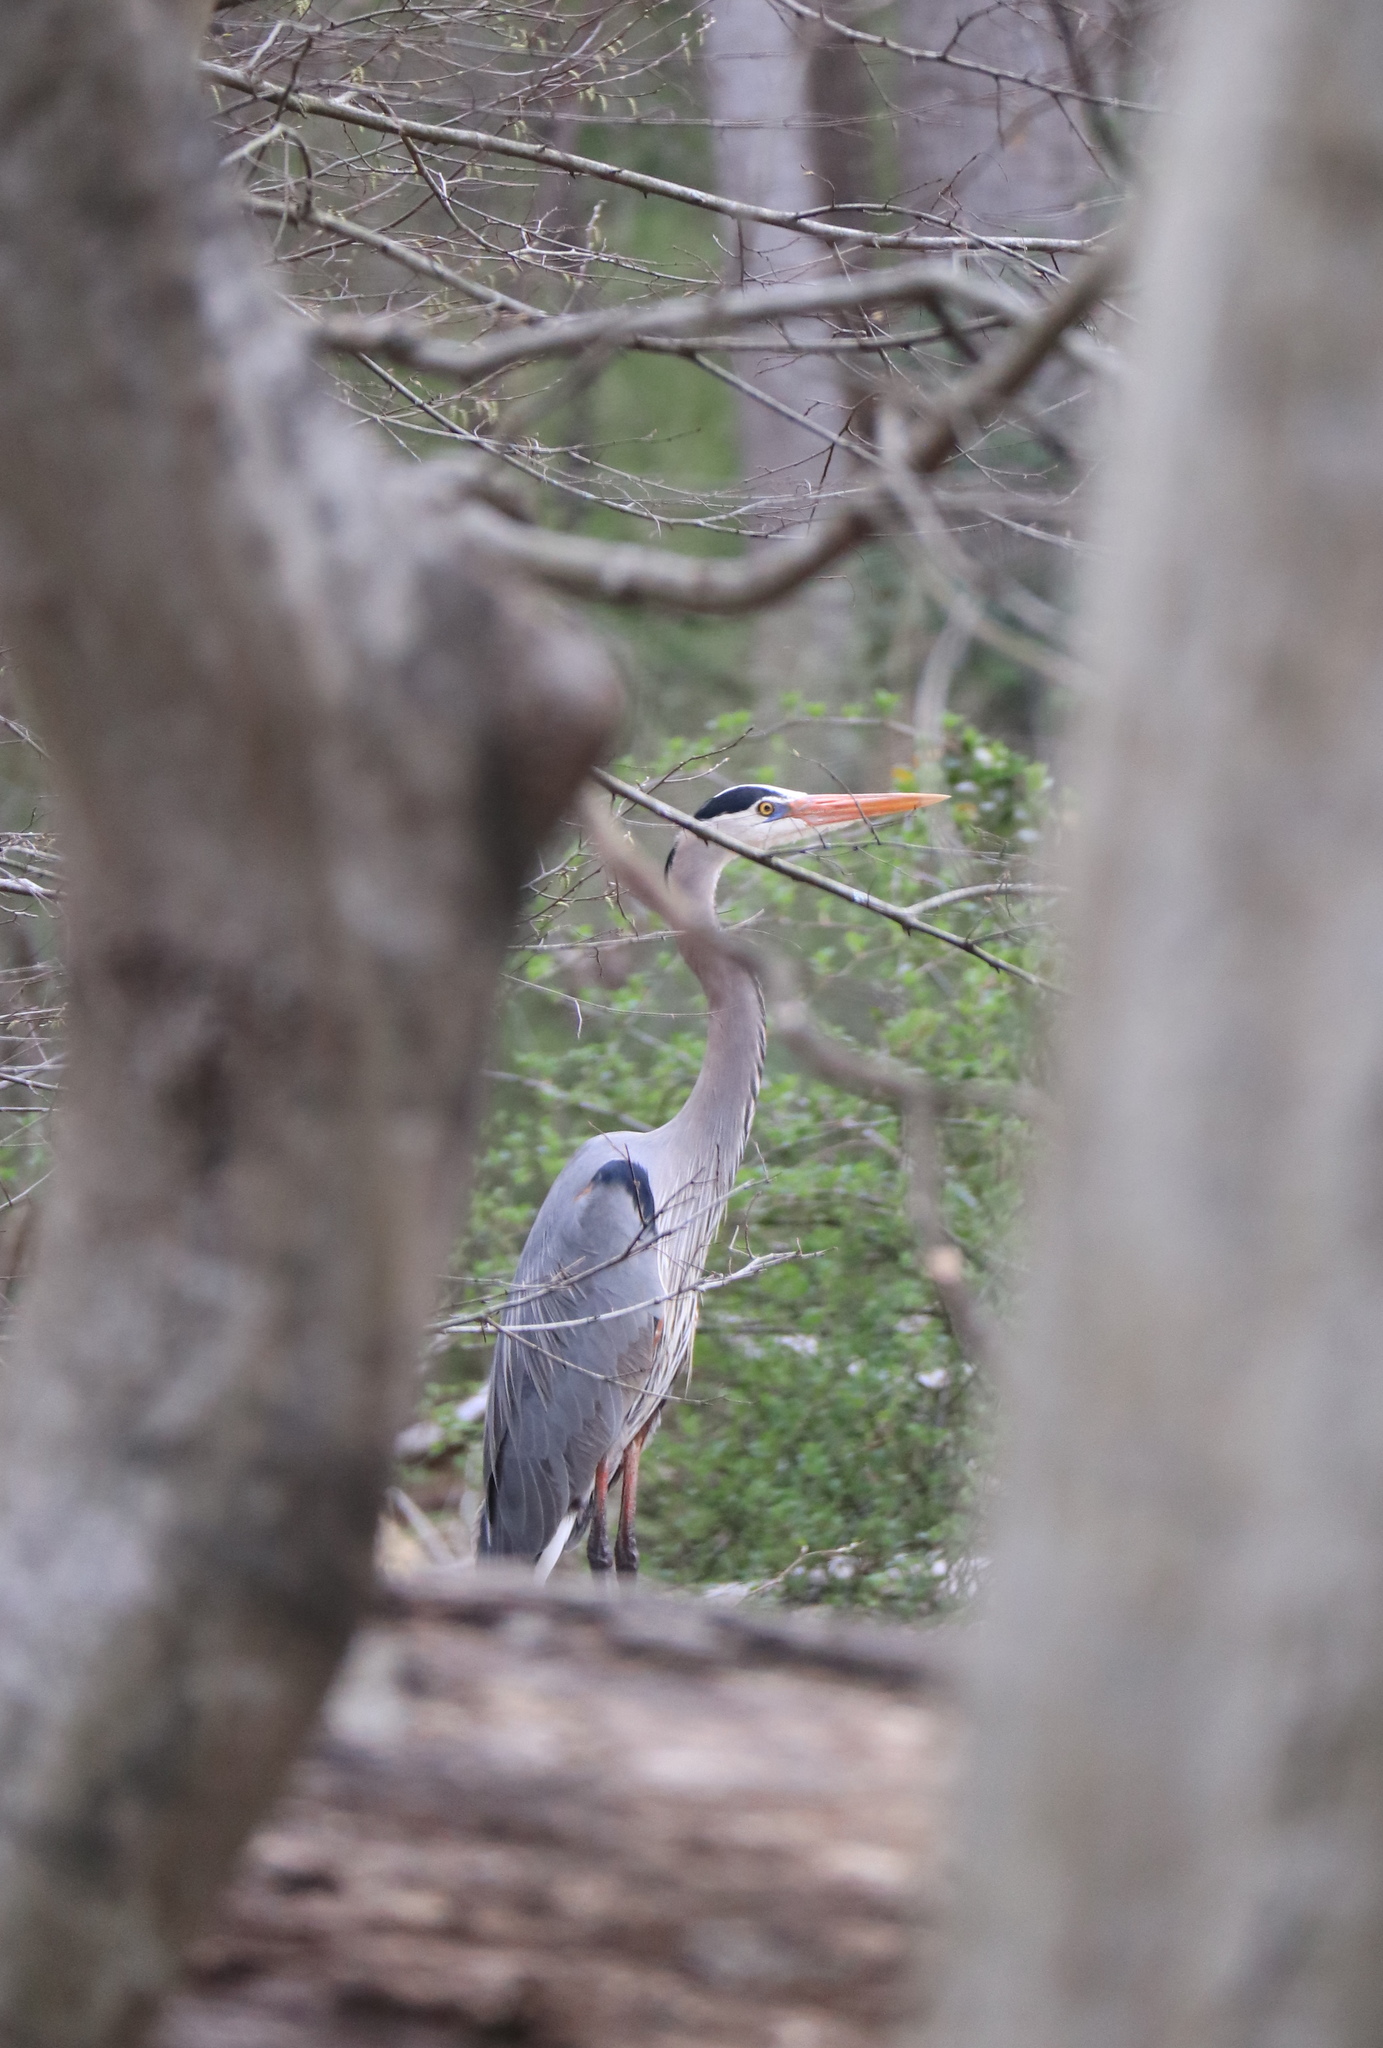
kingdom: Animalia
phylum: Chordata
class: Aves
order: Pelecaniformes
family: Ardeidae
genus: Ardea
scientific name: Ardea herodias
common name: Great blue heron
